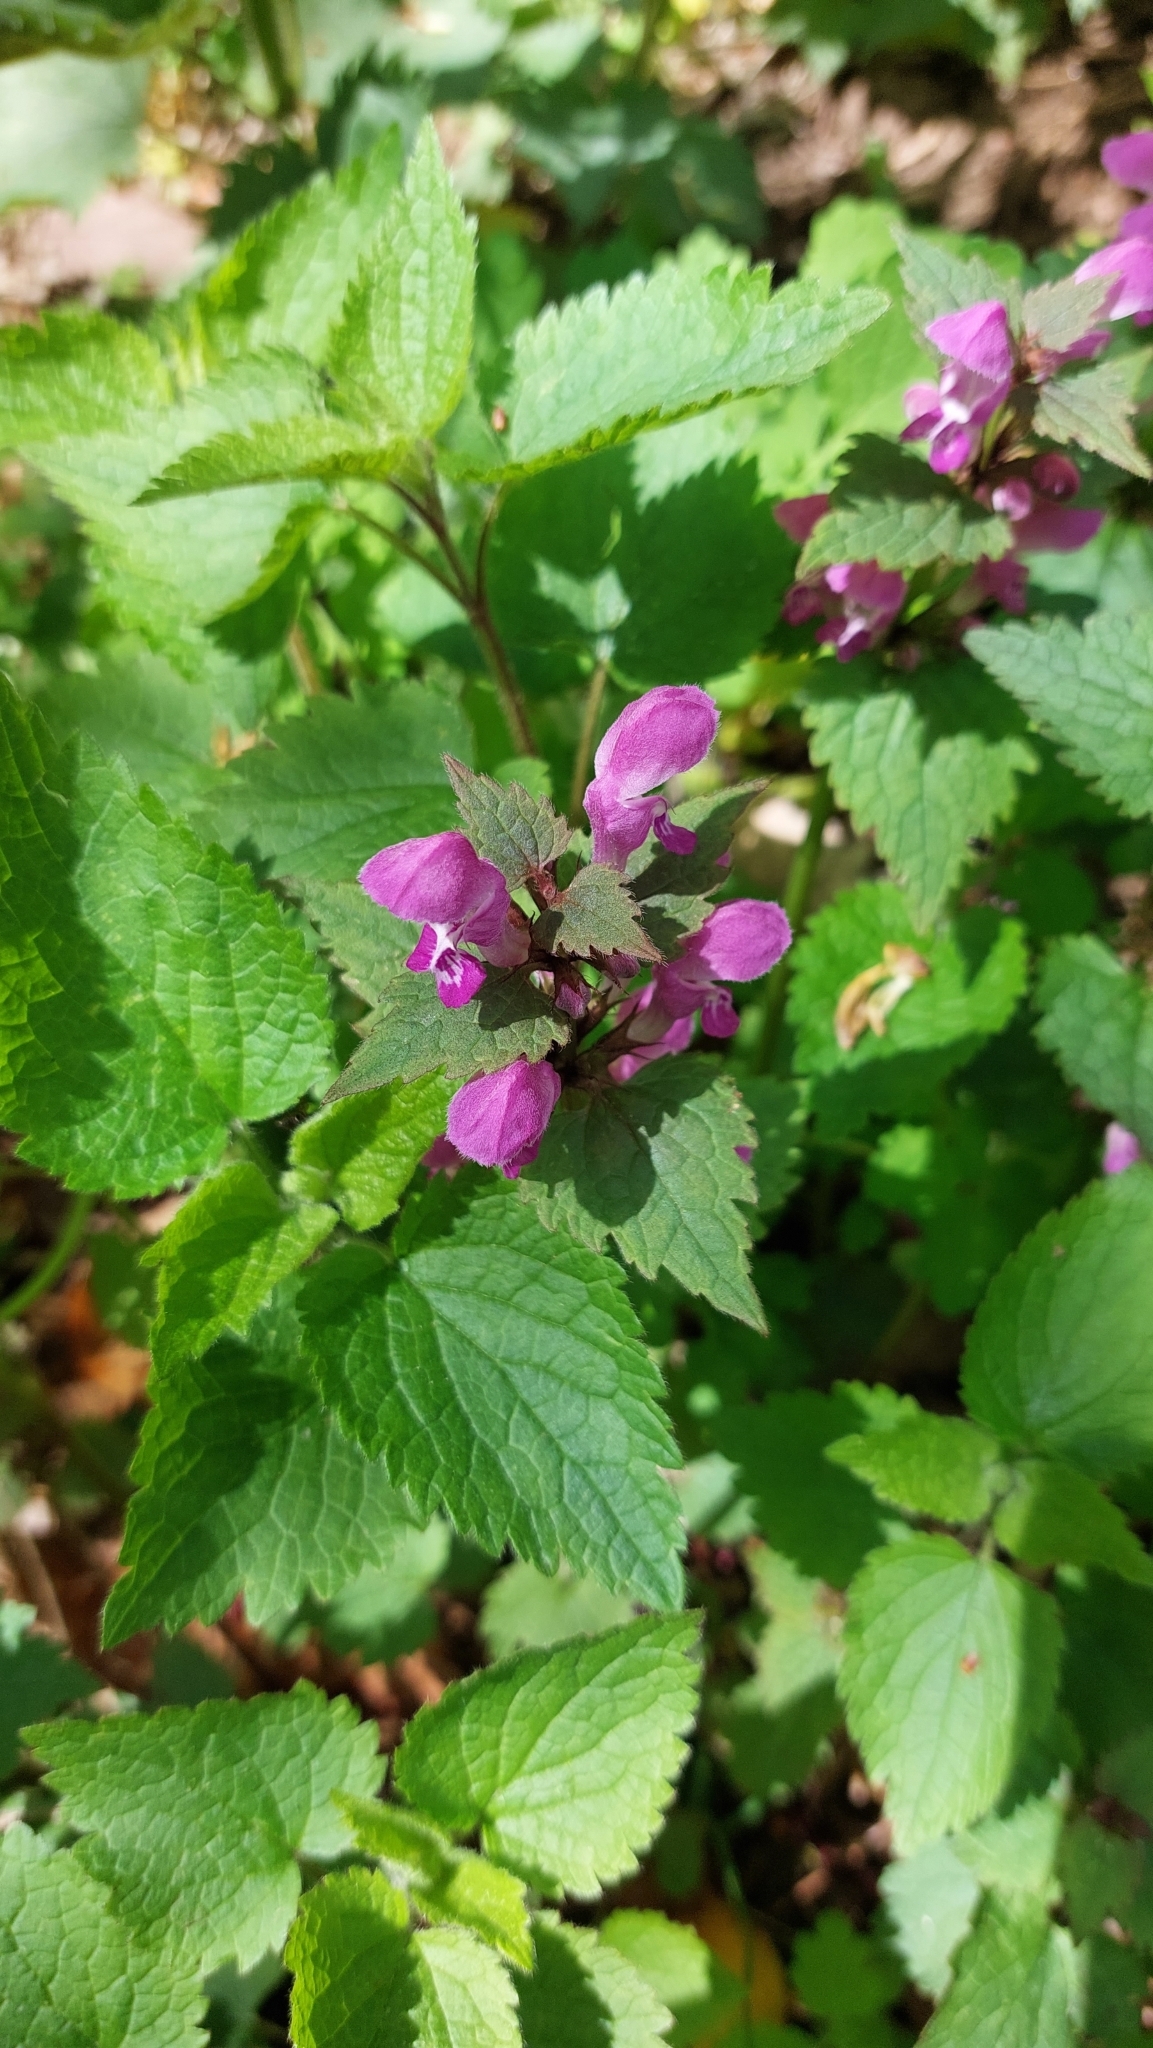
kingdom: Plantae
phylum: Tracheophyta
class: Magnoliopsida
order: Lamiales
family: Lamiaceae
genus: Lamium
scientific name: Lamium maculatum
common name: Spotted dead-nettle
